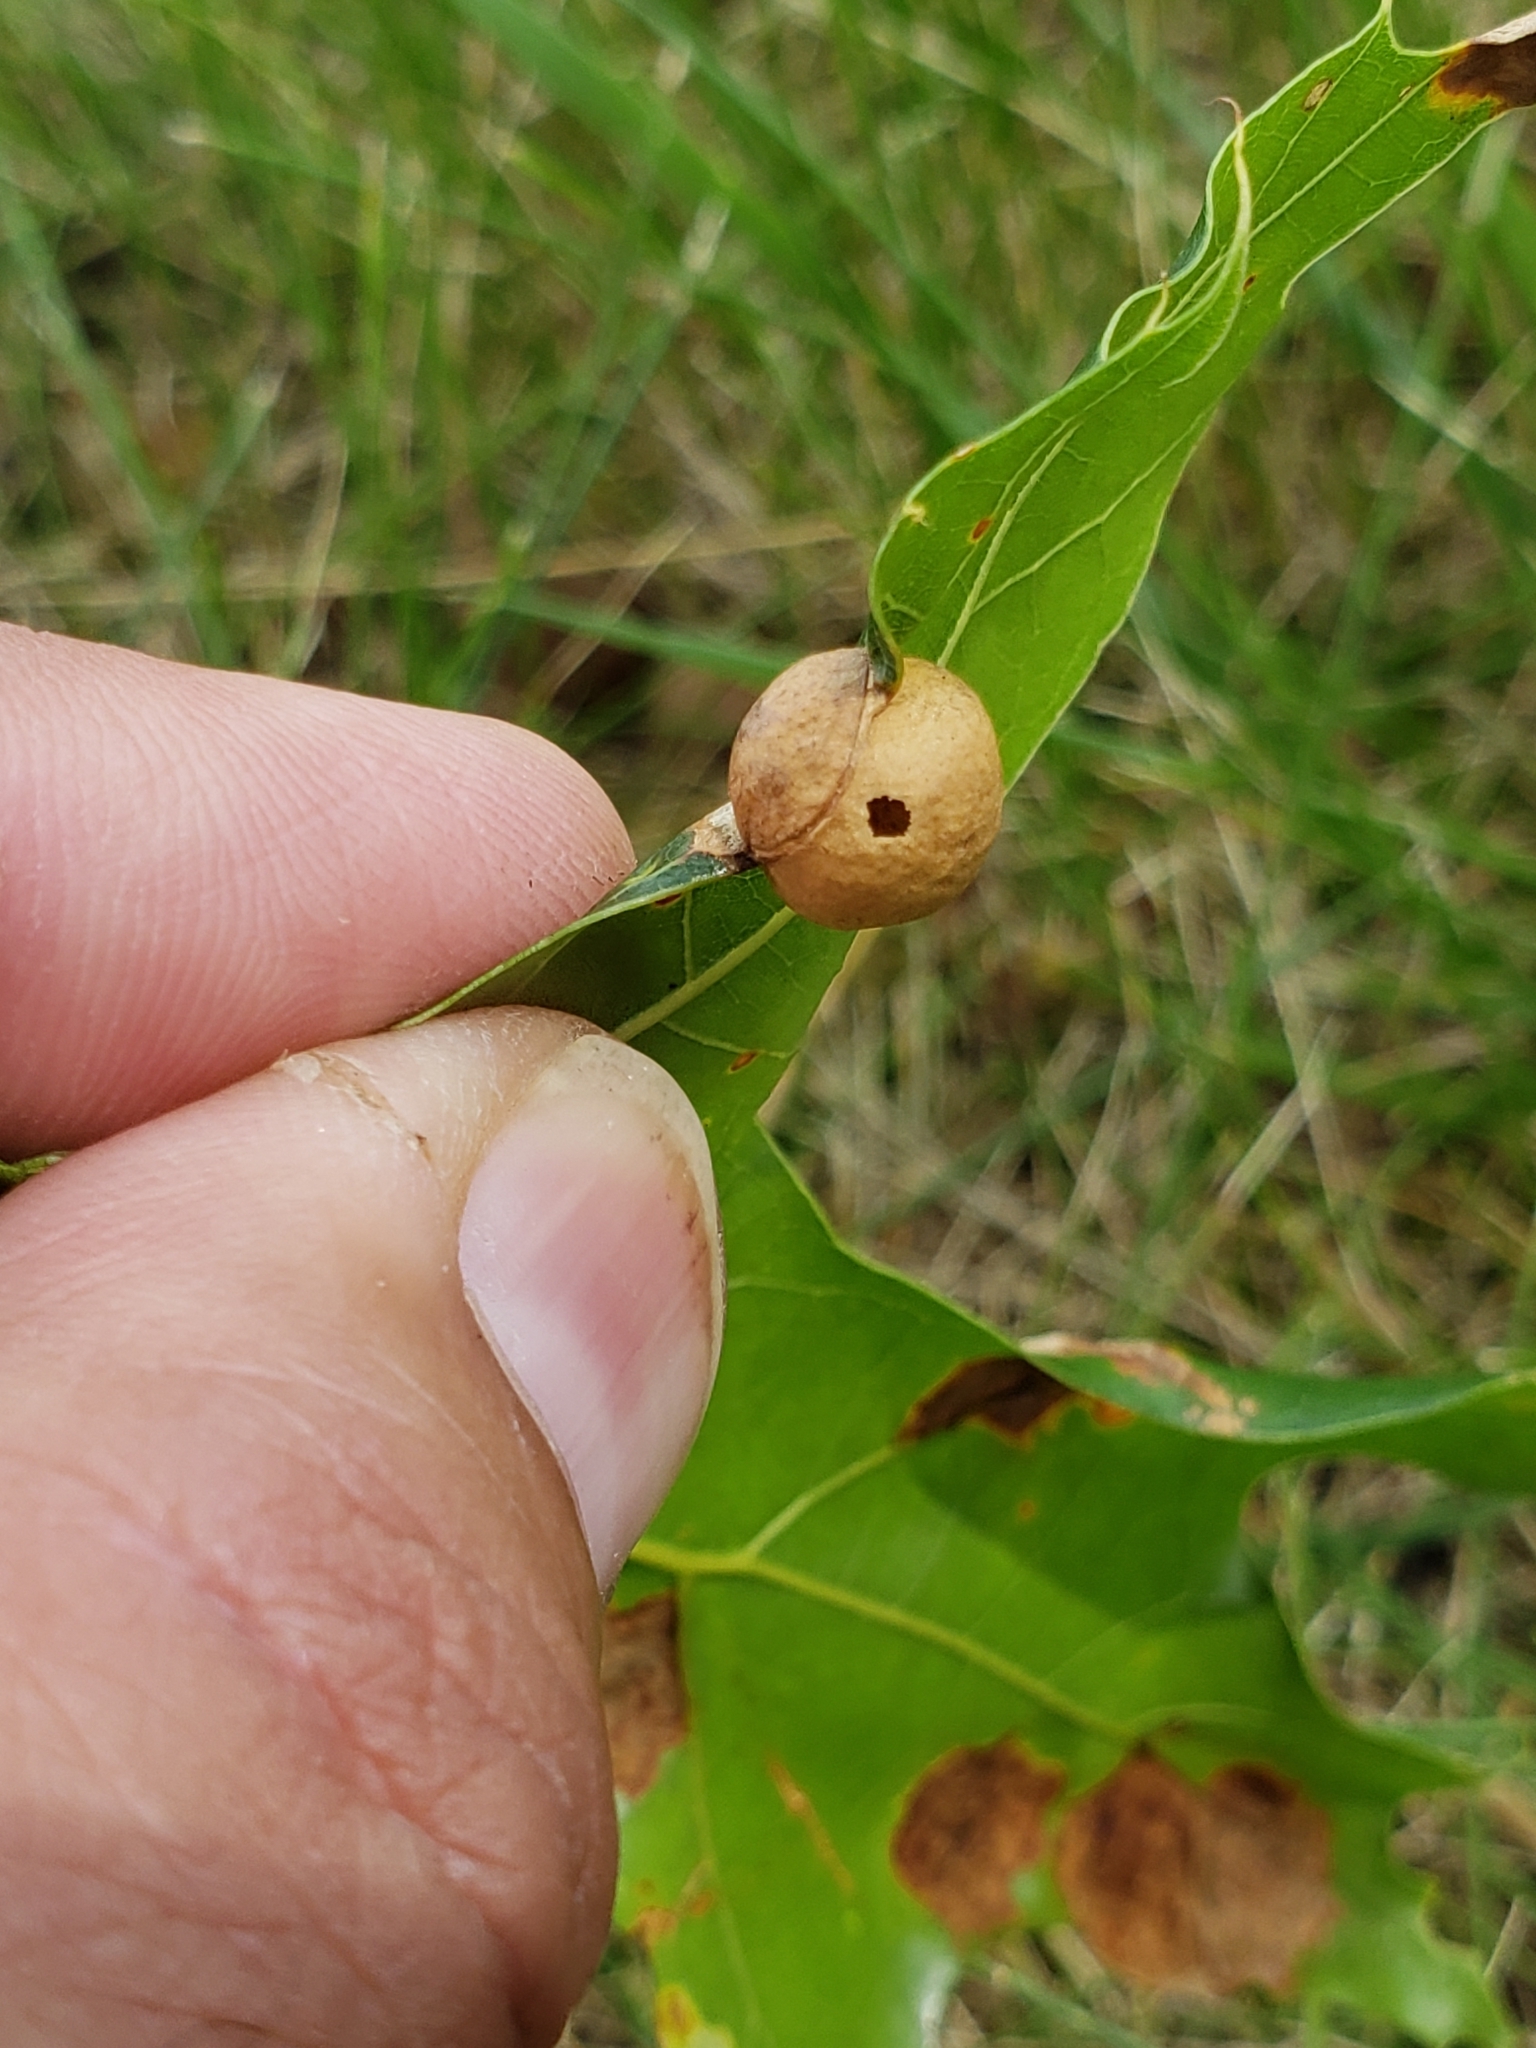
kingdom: Animalia
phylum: Arthropoda
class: Insecta
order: Hymenoptera
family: Cynipidae
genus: Amphibolips
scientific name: Amphibolips
